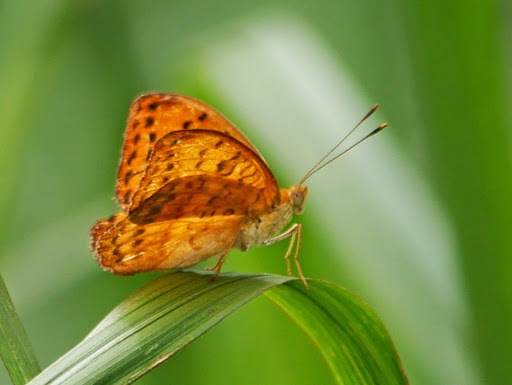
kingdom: Animalia
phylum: Arthropoda
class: Insecta
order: Lepidoptera
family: Nymphalidae
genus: Pseudacraea
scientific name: Pseudacraea Pseudargynnis hegemone
